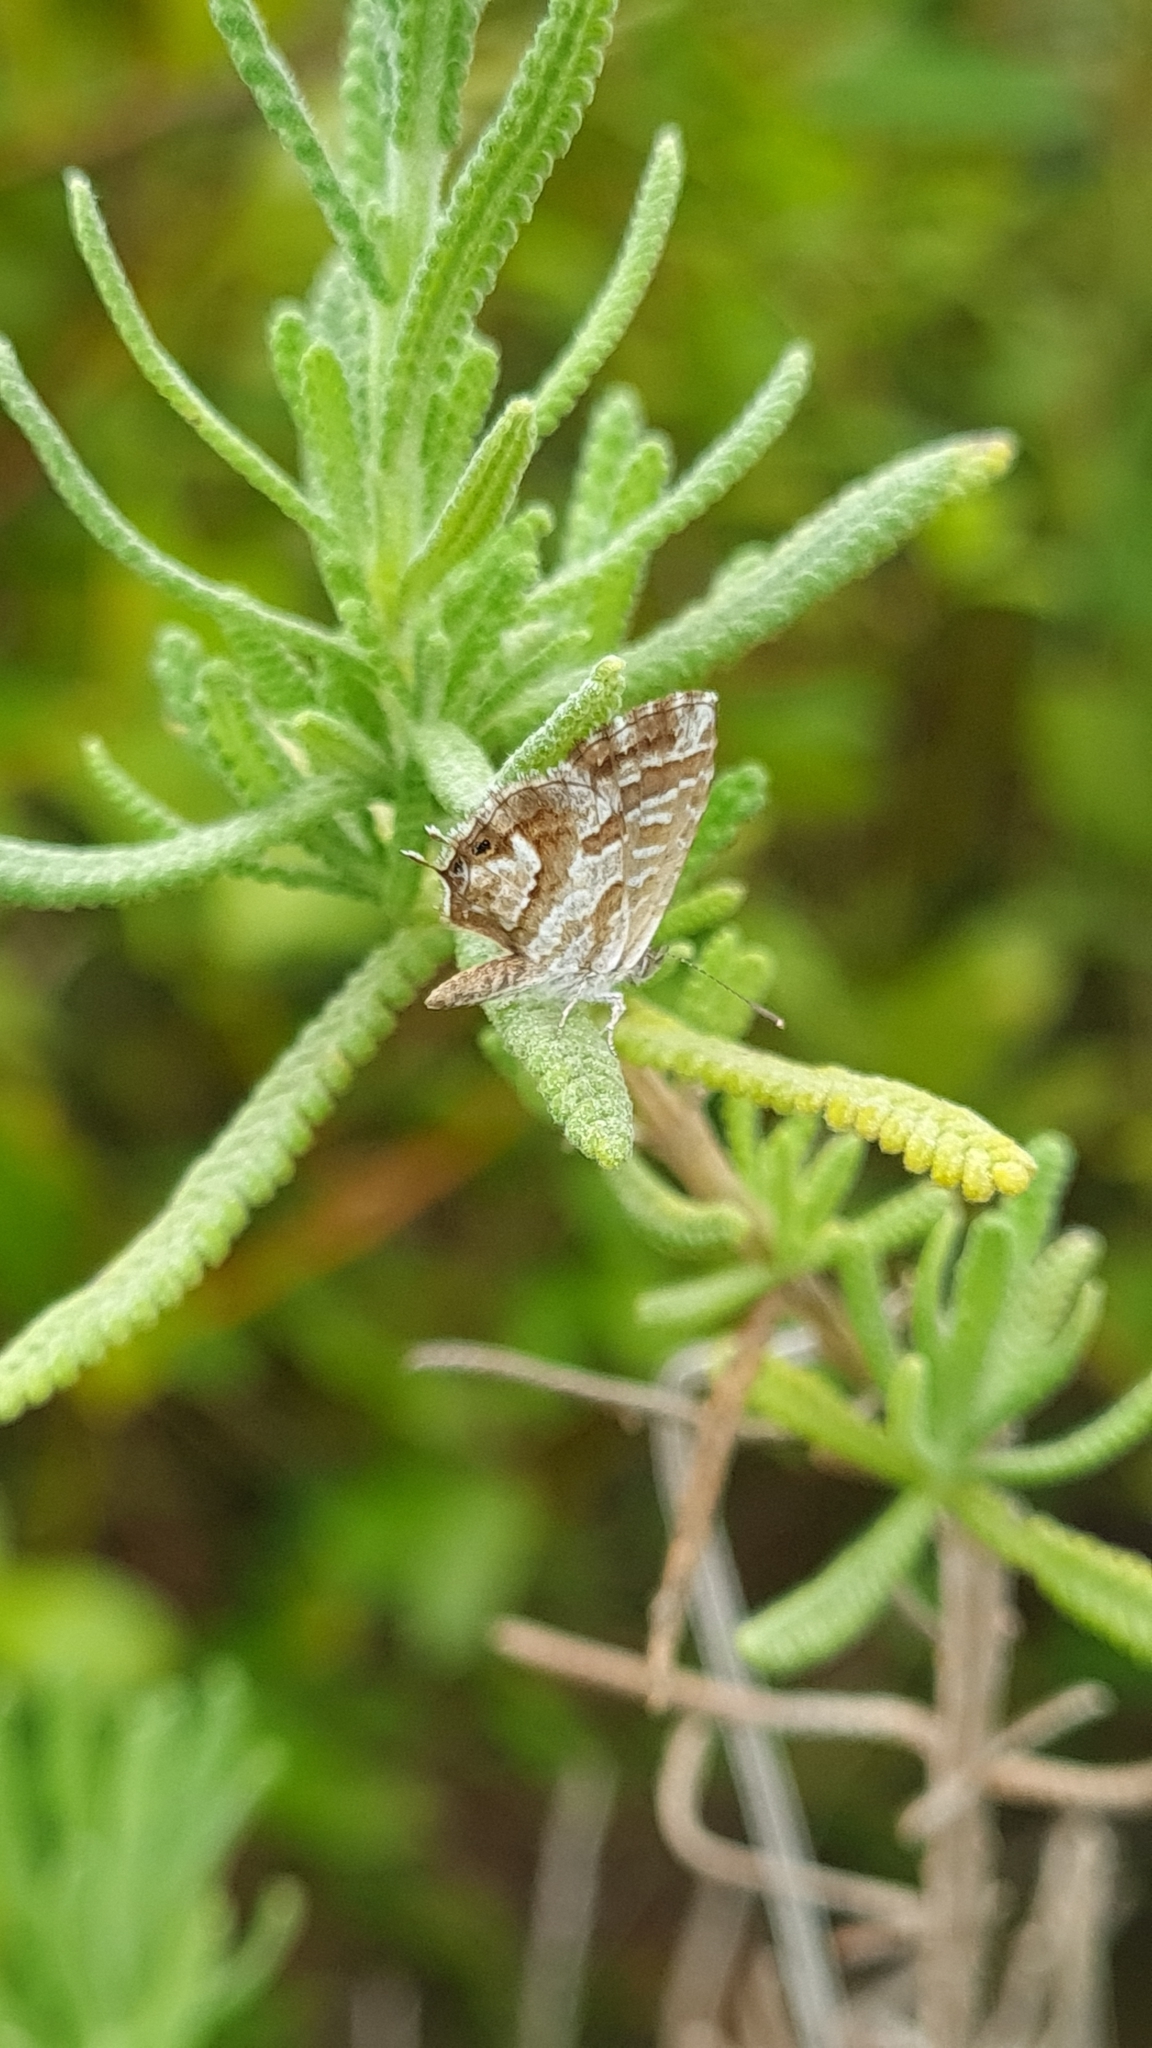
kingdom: Animalia
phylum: Arthropoda
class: Insecta
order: Lepidoptera
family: Lycaenidae
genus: Cacyreus
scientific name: Cacyreus marshalli
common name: Geranium bronze
